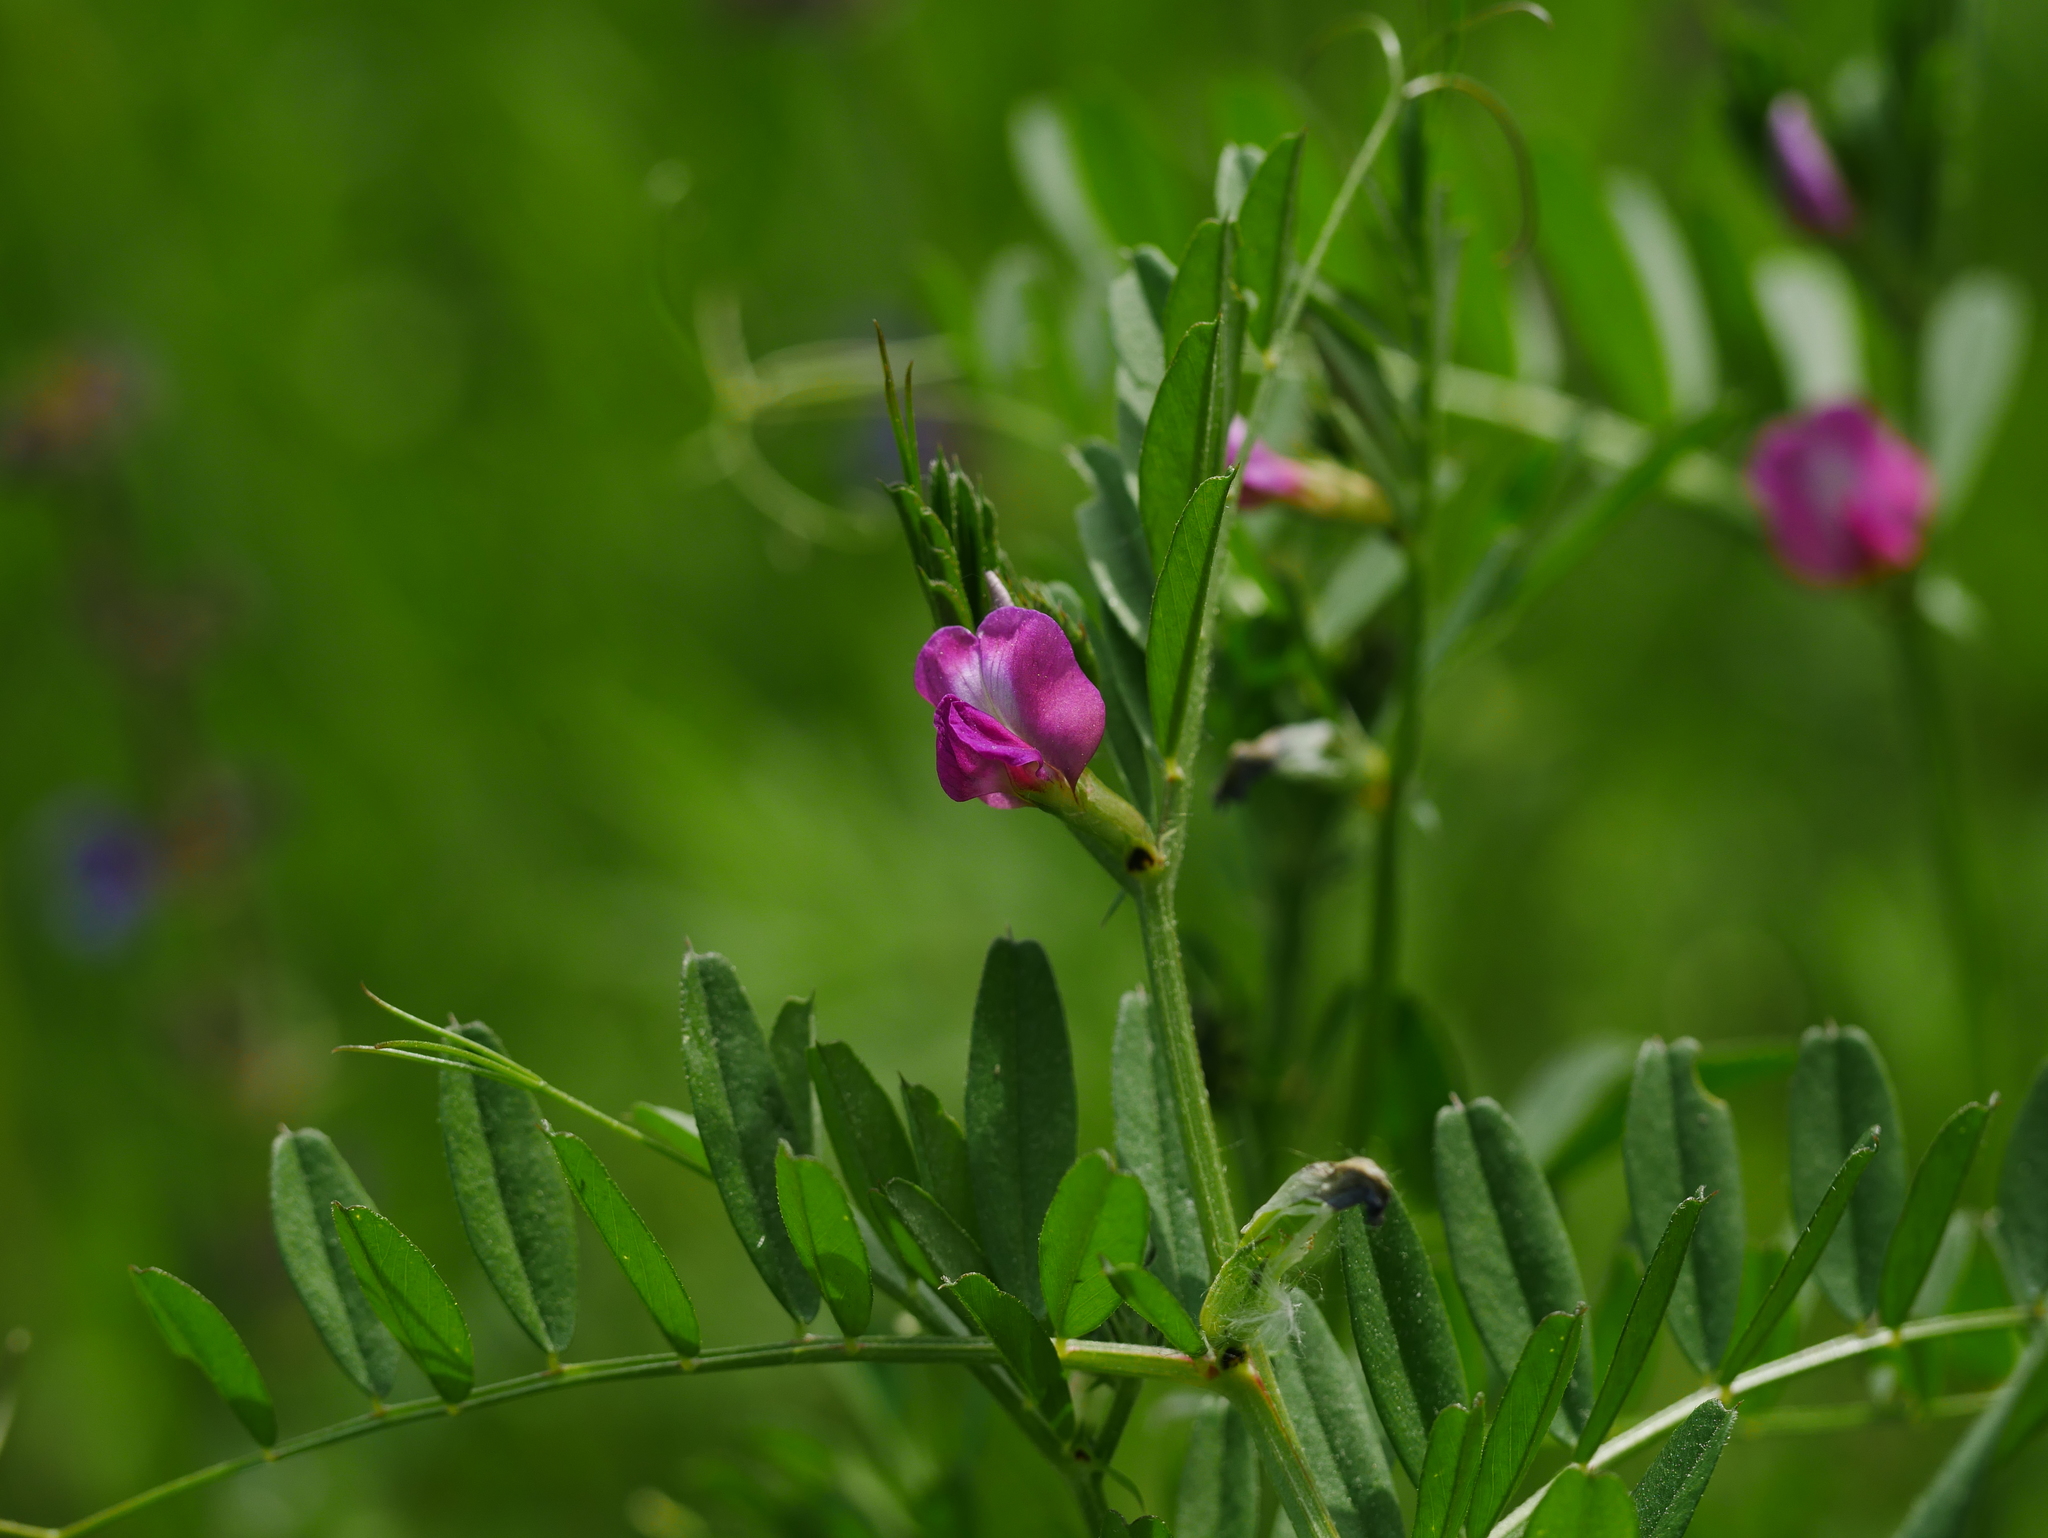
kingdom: Plantae
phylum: Tracheophyta
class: Magnoliopsida
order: Fabales
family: Fabaceae
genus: Vicia
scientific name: Vicia sativa
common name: Garden vetch
